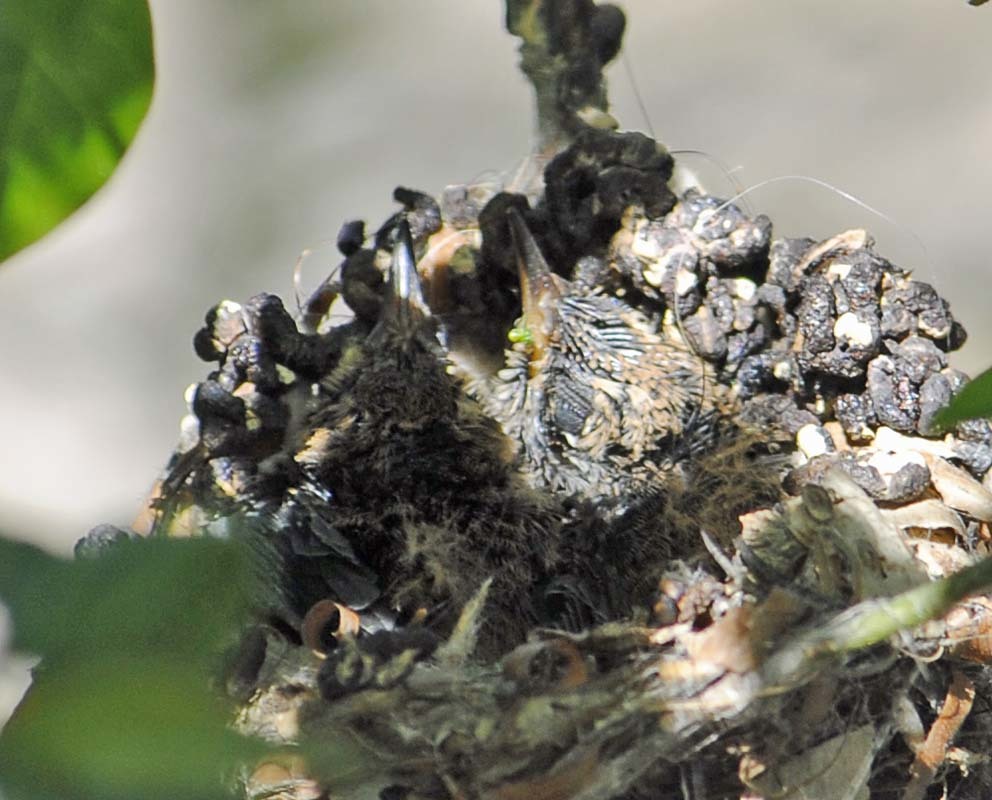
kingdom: Animalia
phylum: Chordata
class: Aves
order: Apodiformes
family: Trochilidae
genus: Cynanthus
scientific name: Cynanthus latirostris
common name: Broad-billed hummingbird
